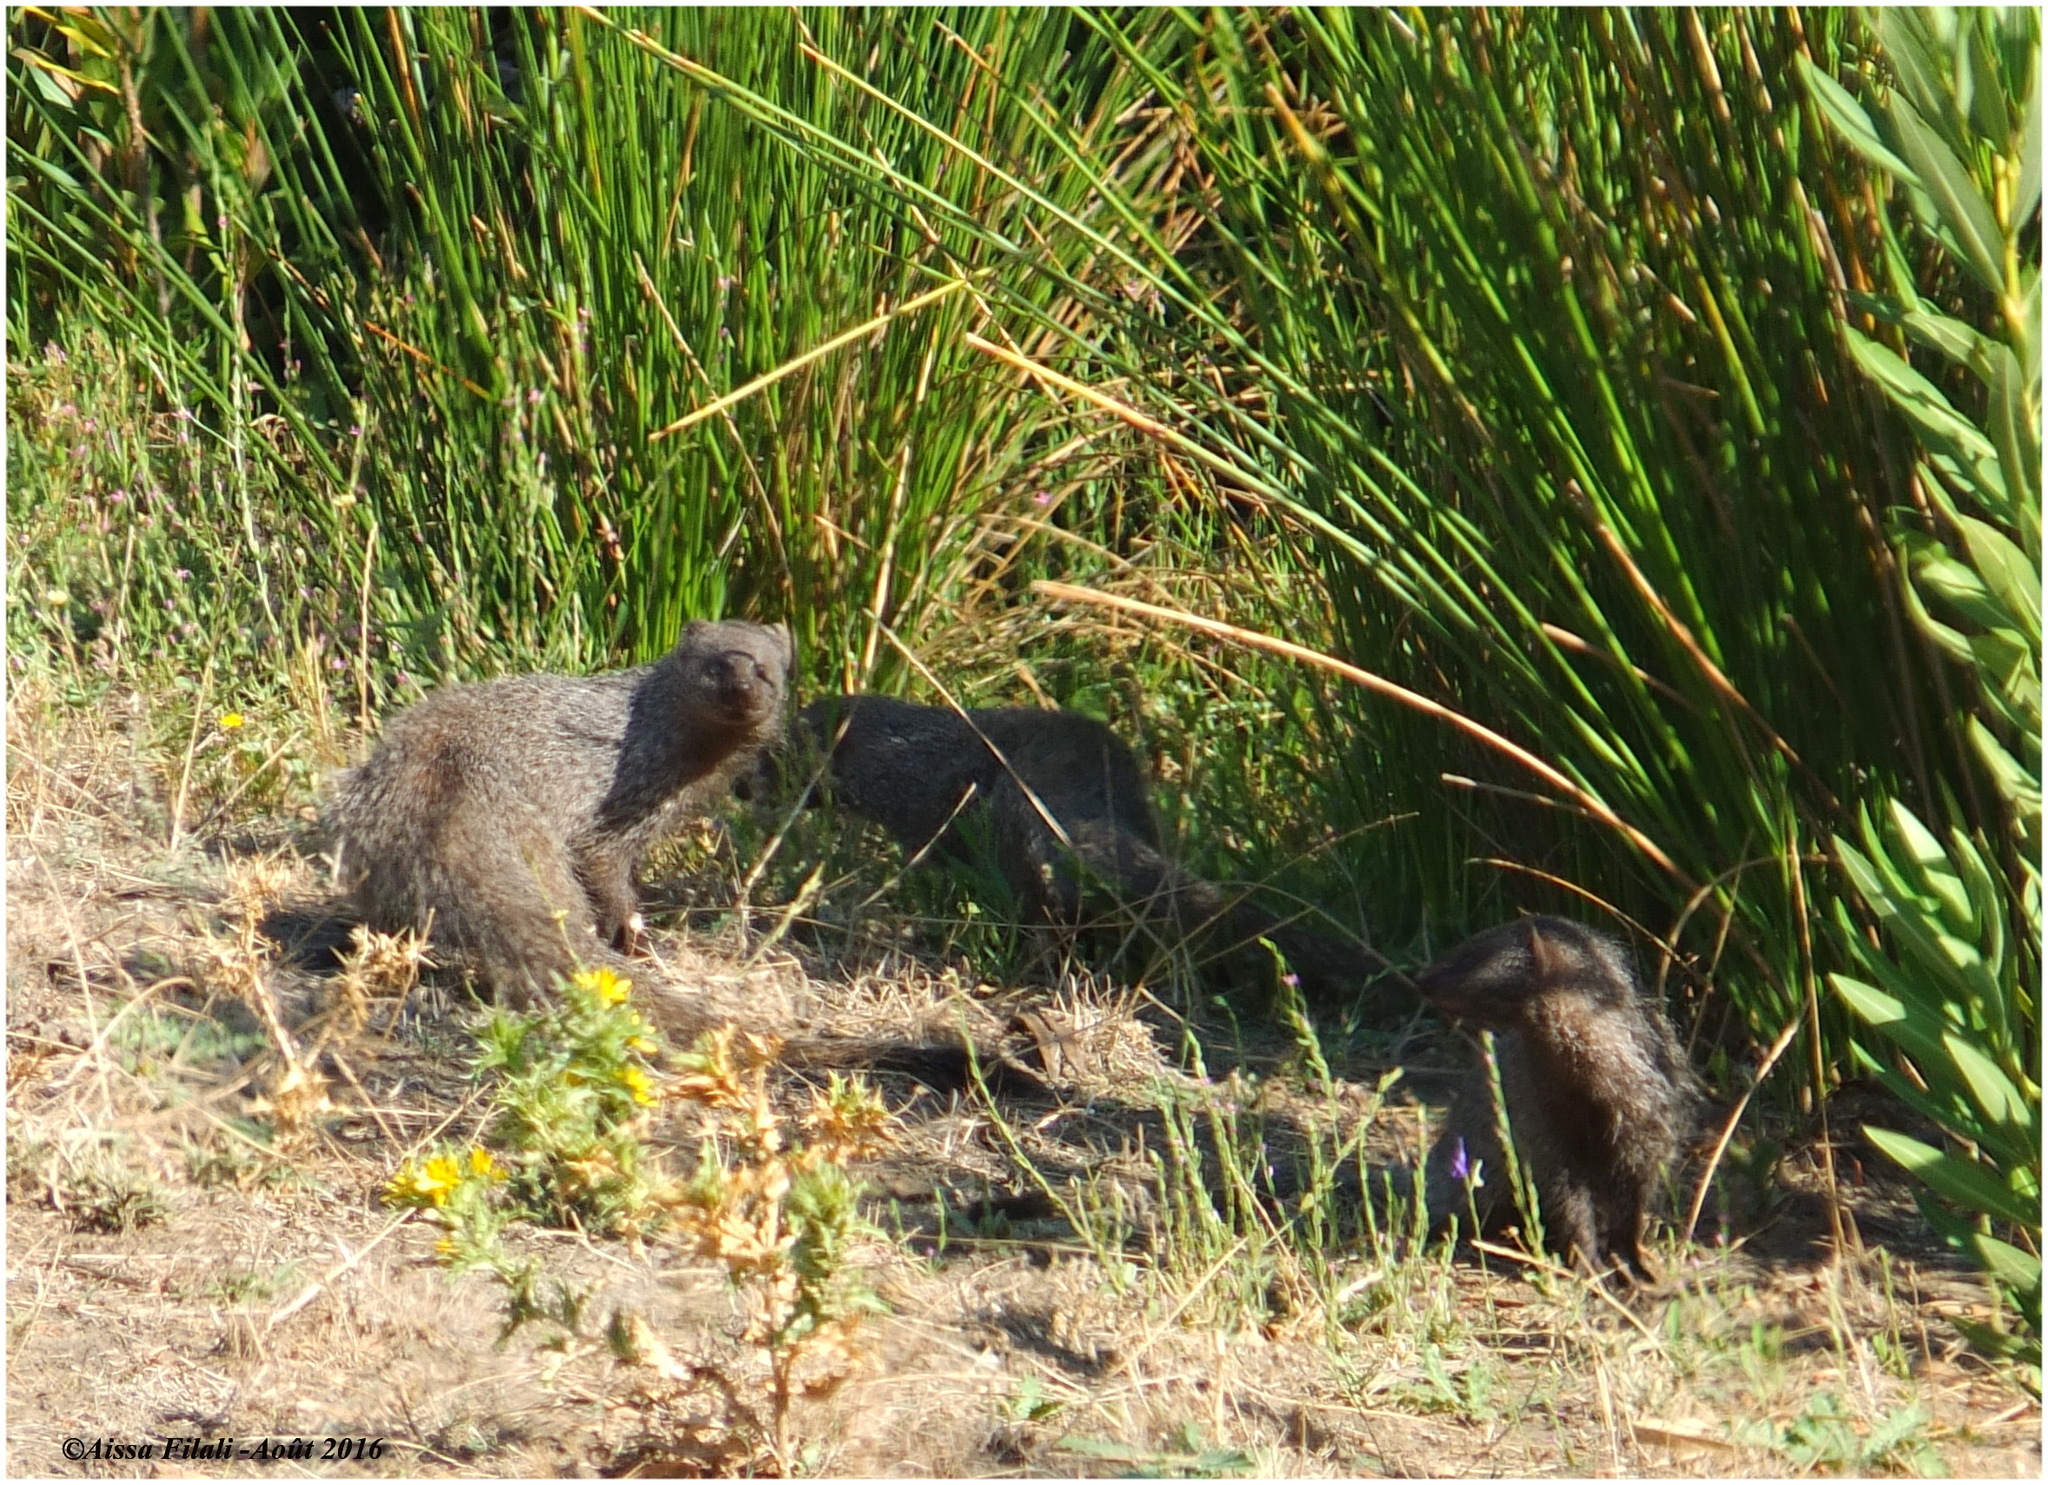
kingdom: Animalia
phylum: Chordata
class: Mammalia
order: Carnivora
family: Herpestidae
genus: Herpestes
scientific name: Herpestes ichneumon
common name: Egyptian mongoose
